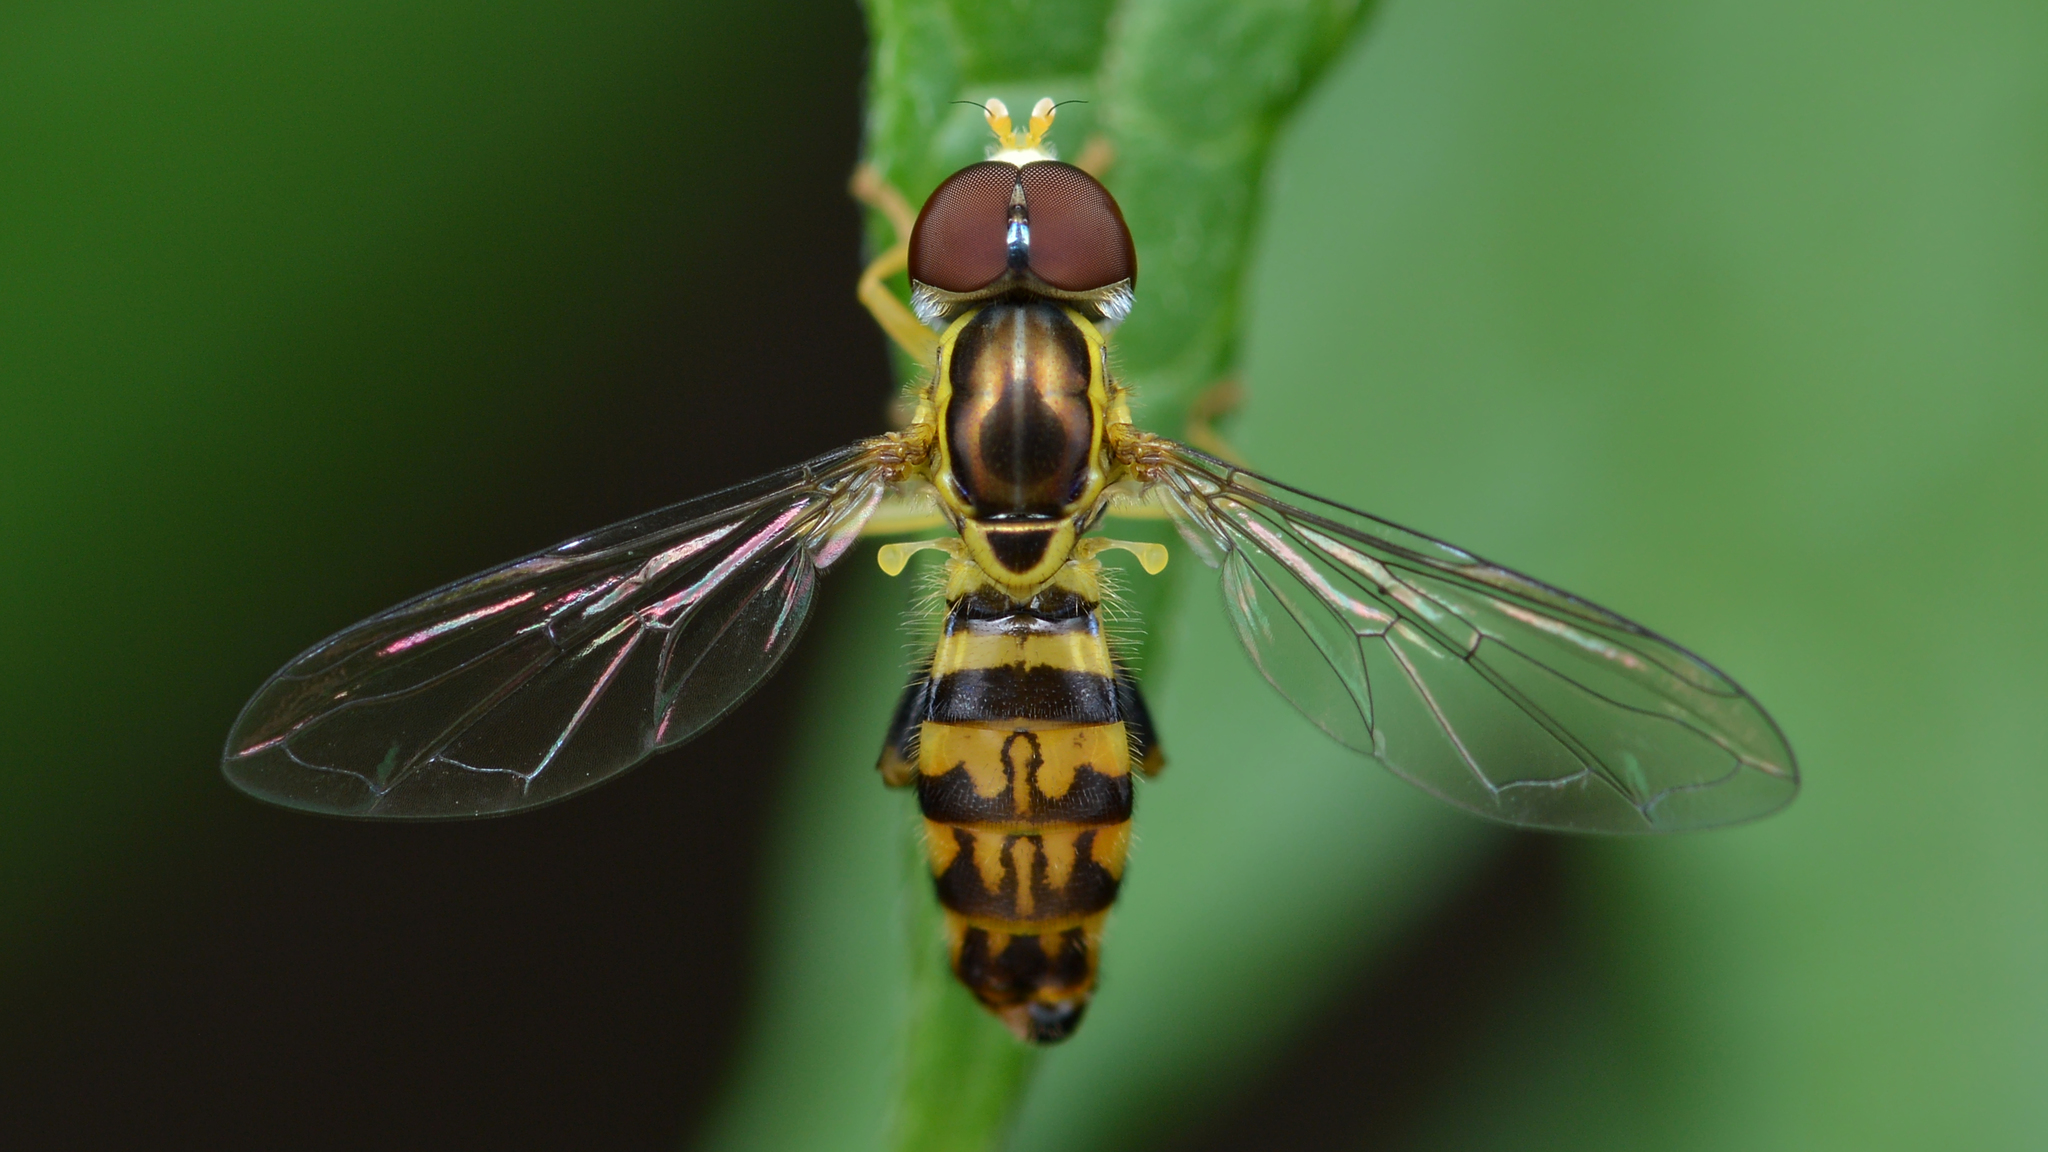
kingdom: Animalia
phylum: Arthropoda
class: Insecta
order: Diptera
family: Syrphidae
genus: Toxomerus
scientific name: Toxomerus geminatus
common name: Eastern calligrapher
